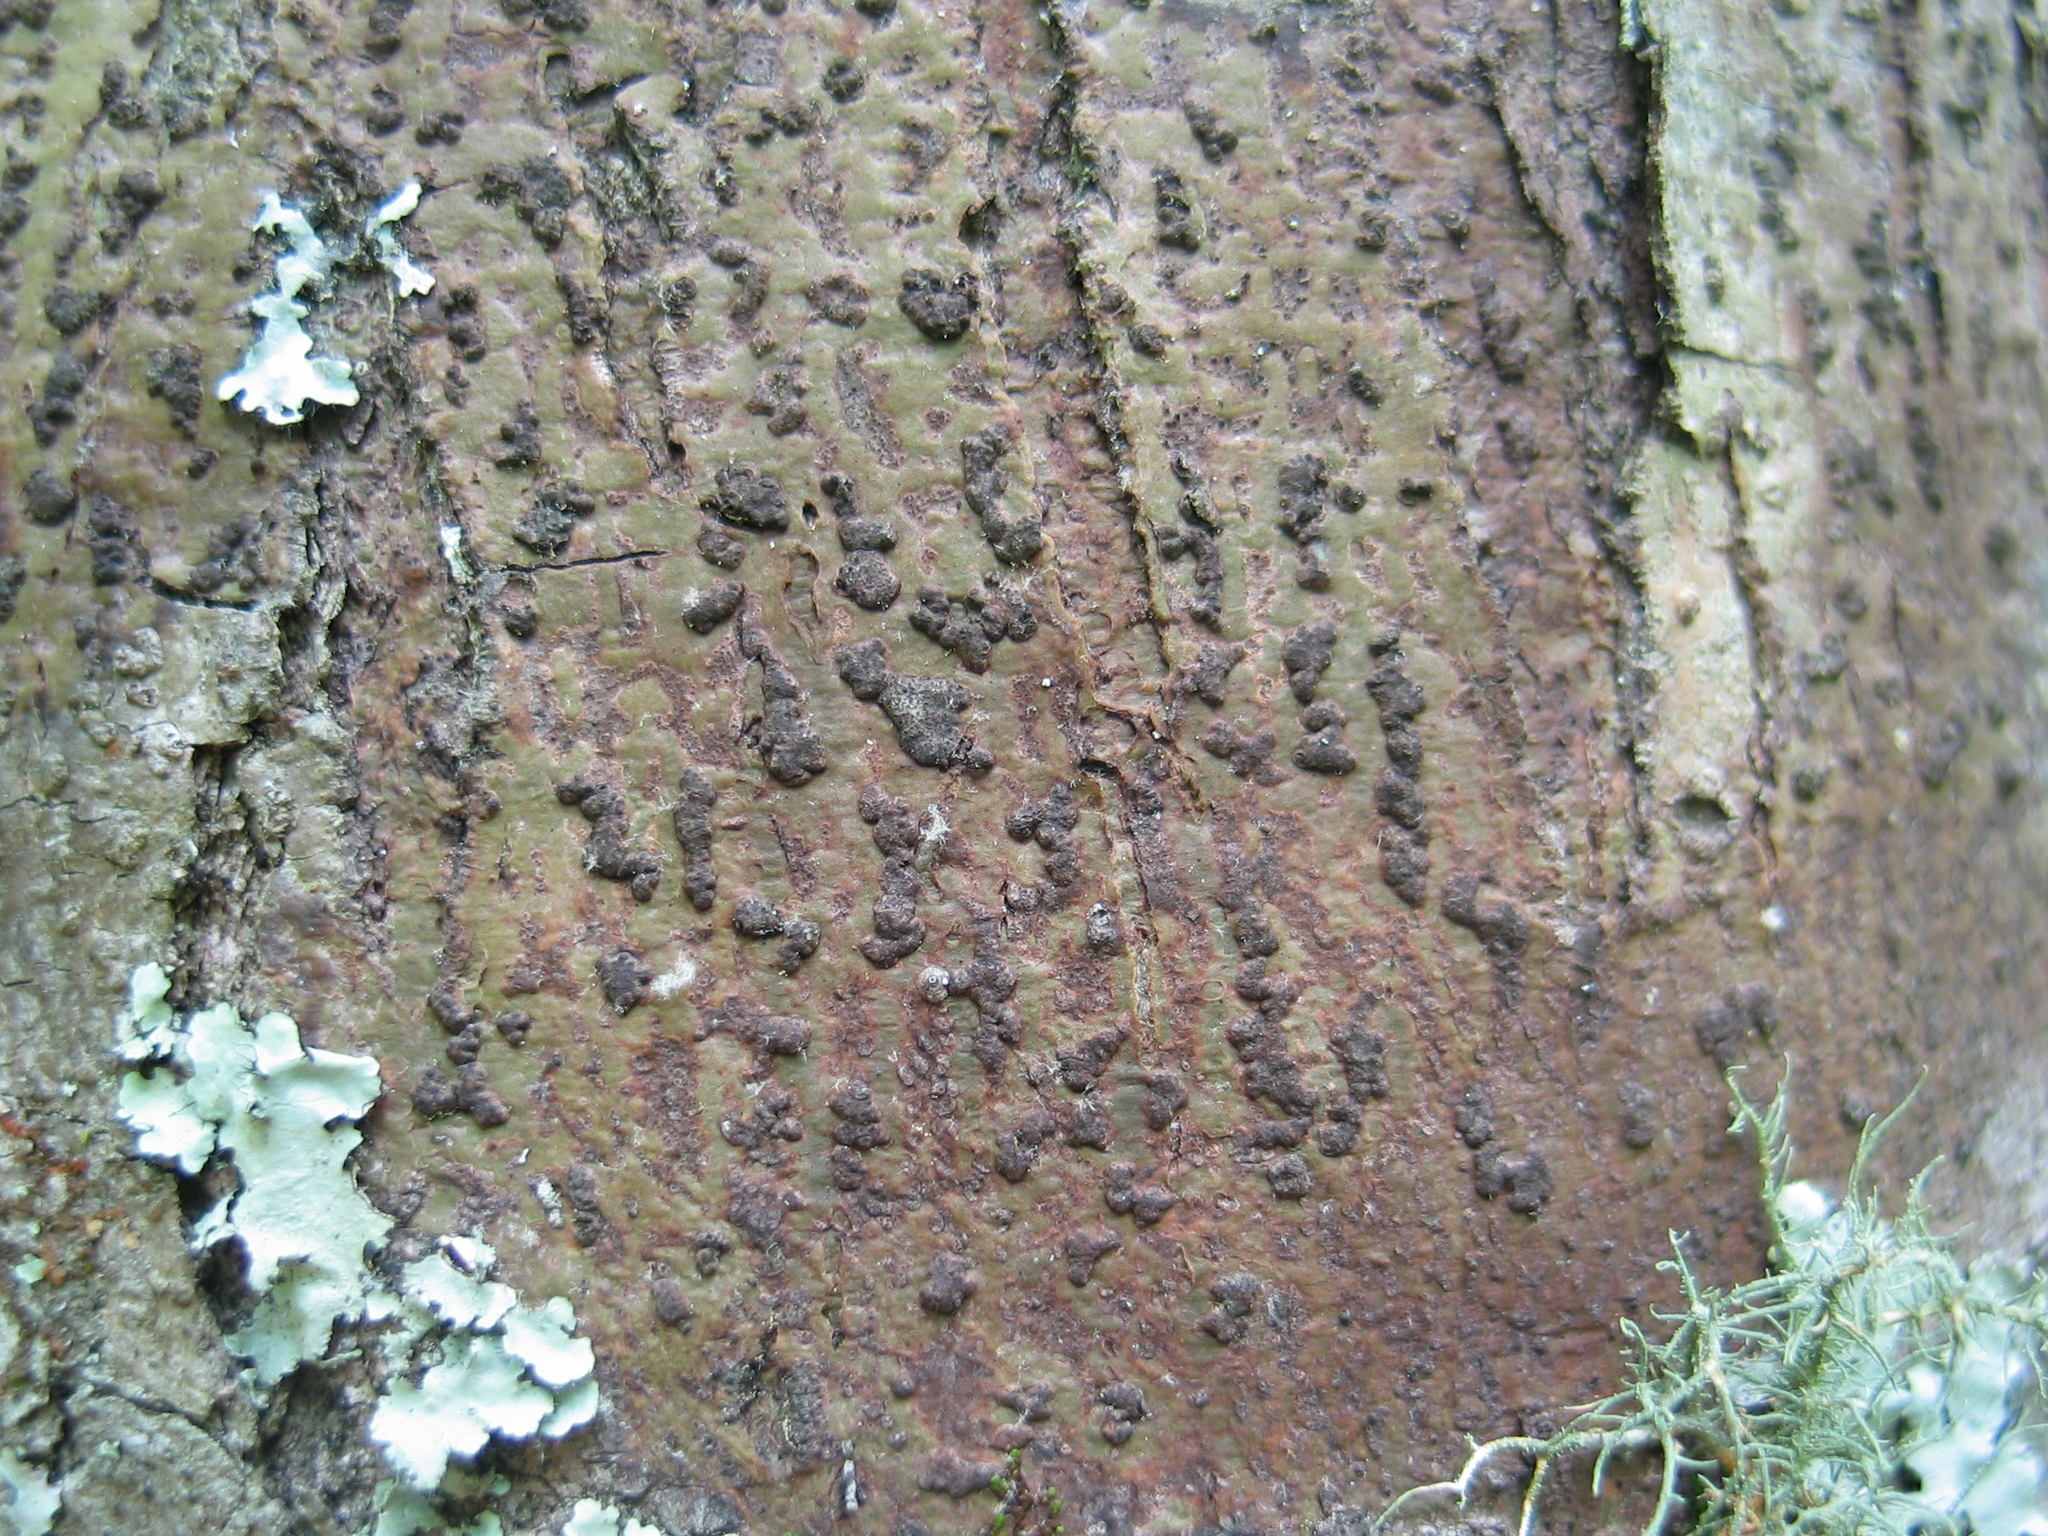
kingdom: Fungi
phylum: Ascomycota
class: Dothideomycetes
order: Trypetheliales
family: Trypetheliaceae
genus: Bathelium
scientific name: Bathelium carolinianum
